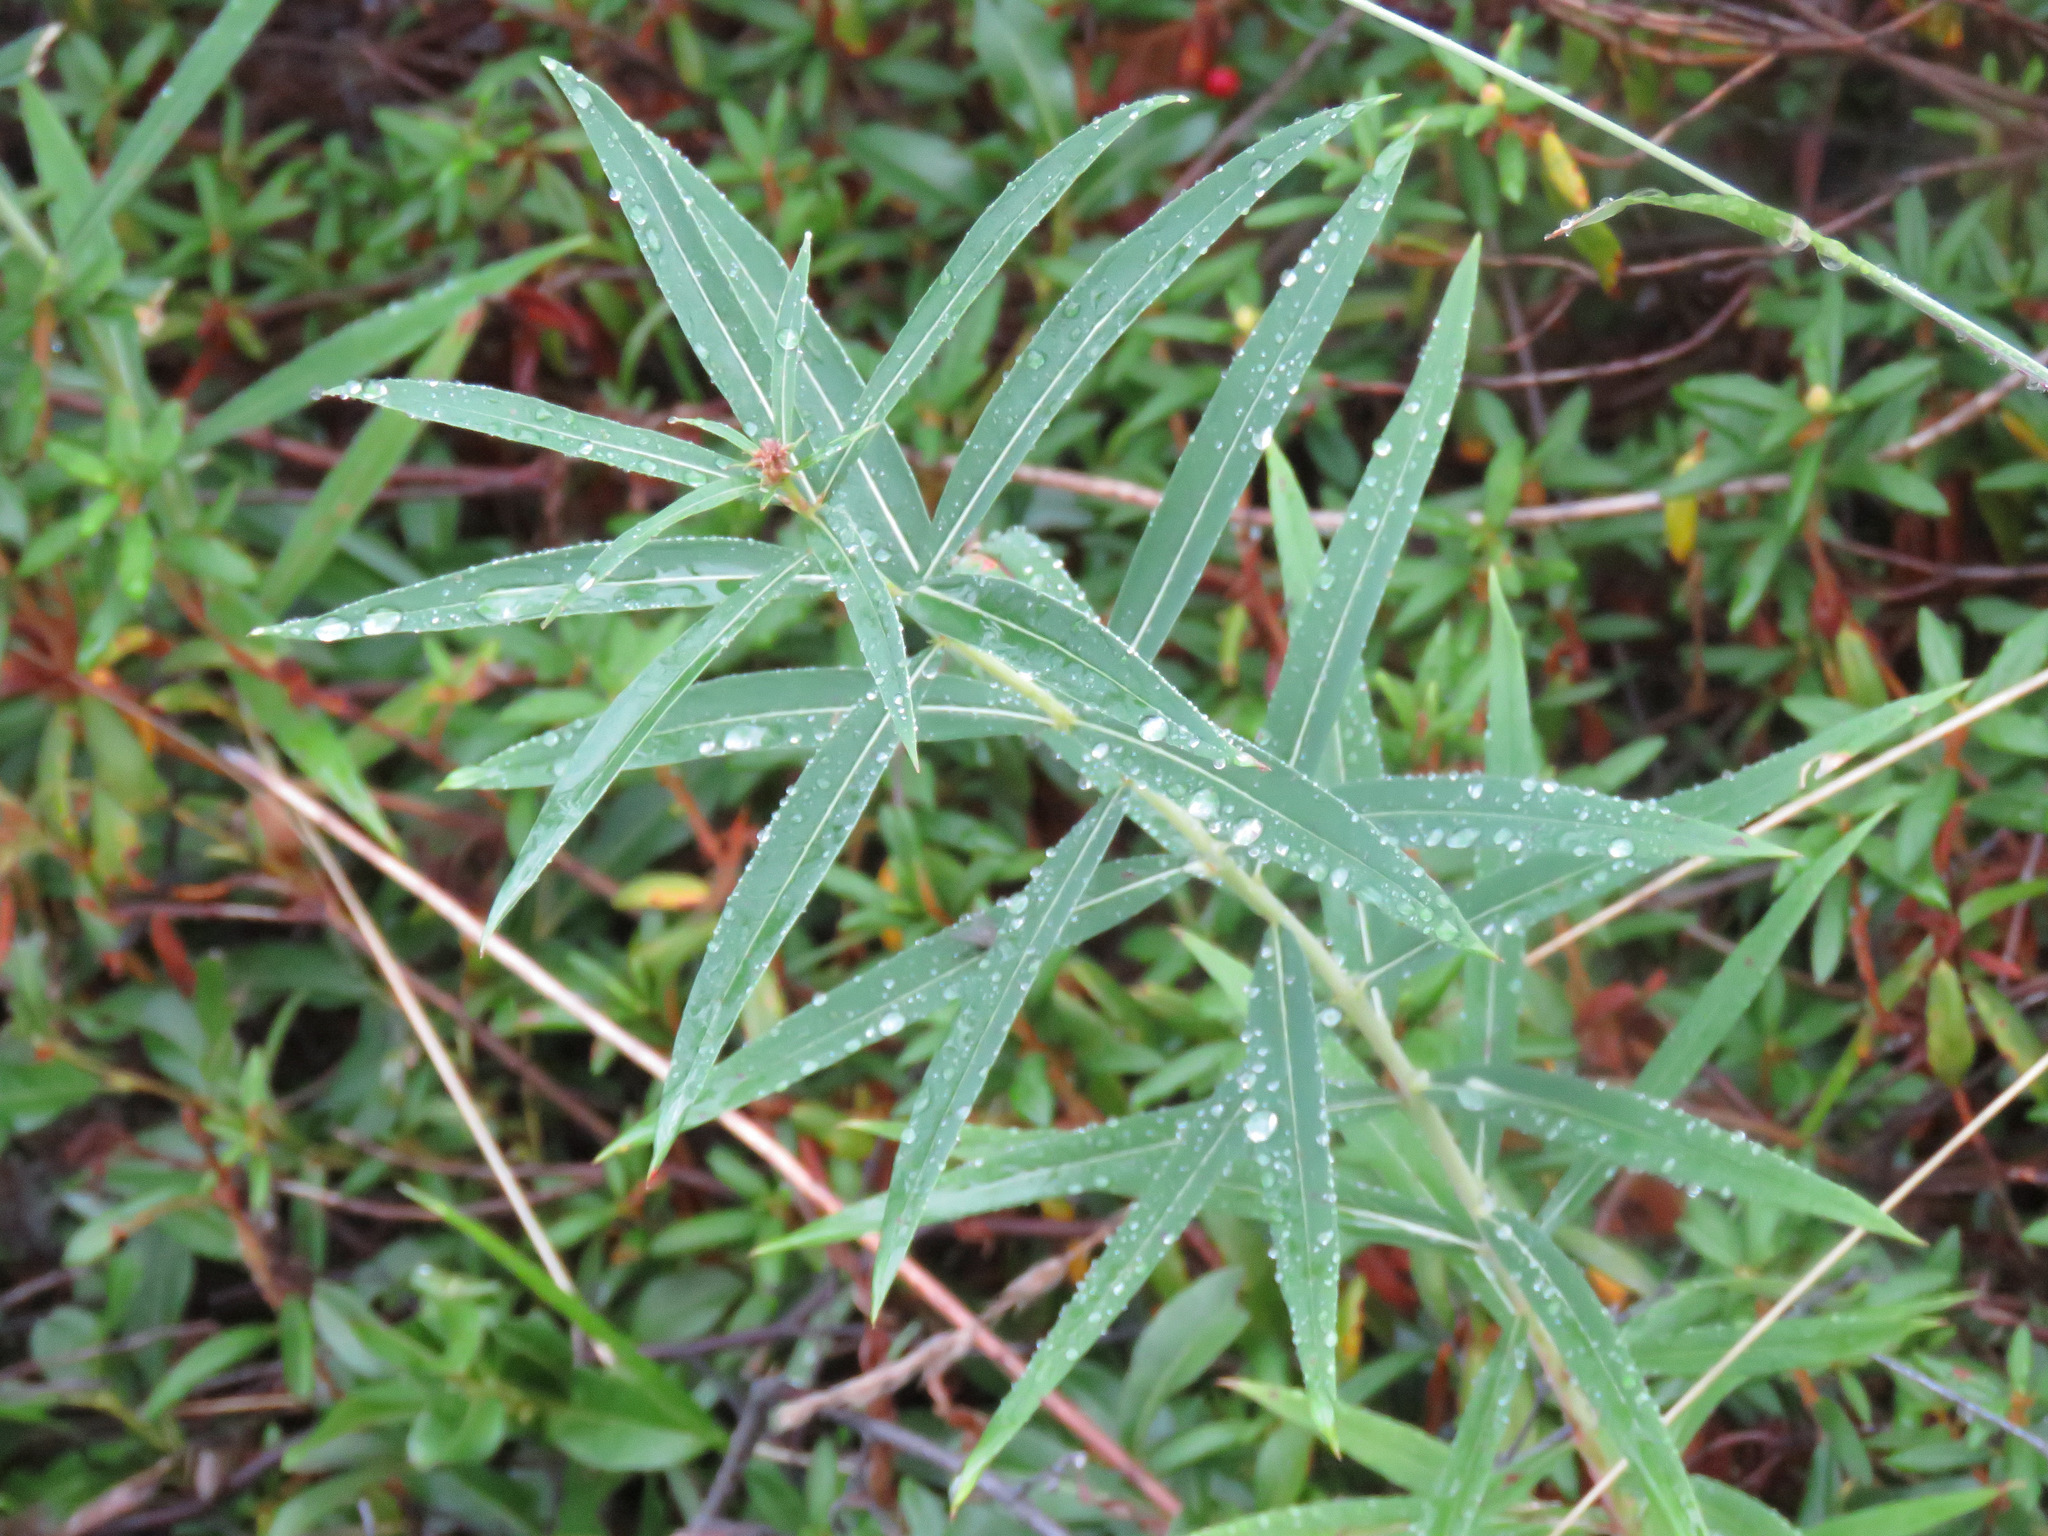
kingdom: Plantae
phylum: Tracheophyta
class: Magnoliopsida
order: Myrtales
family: Onagraceae
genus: Chamaenerion
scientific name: Chamaenerion angustifolium
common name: Fireweed
